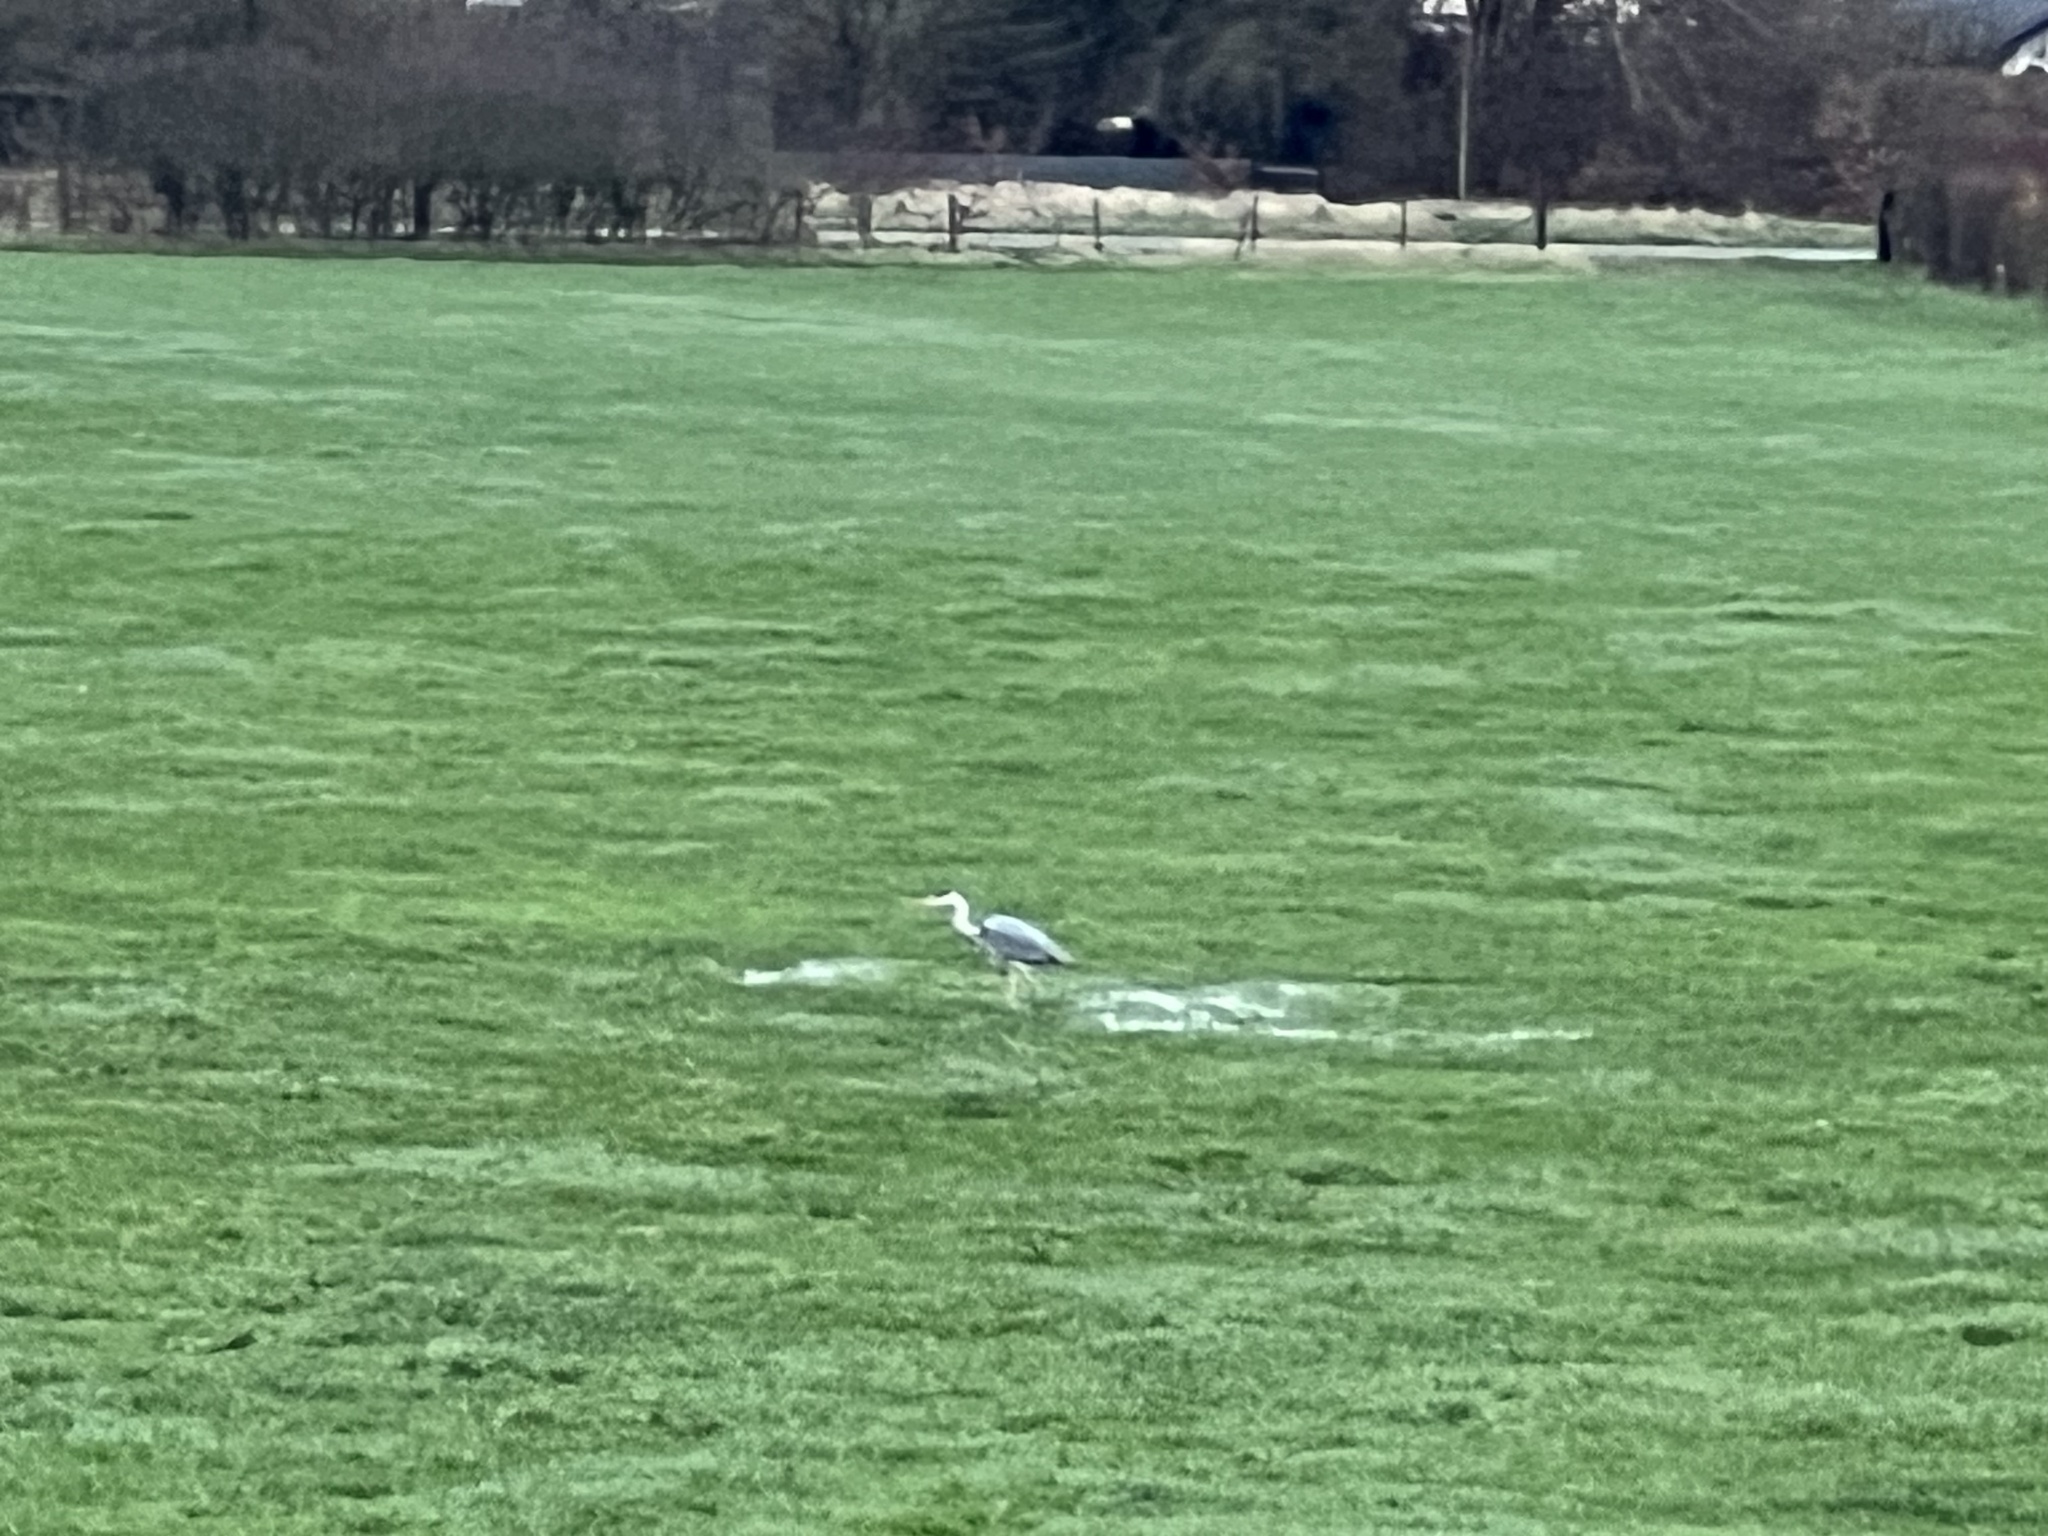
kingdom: Animalia
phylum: Chordata
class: Aves
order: Pelecaniformes
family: Ardeidae
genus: Ardea
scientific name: Ardea cinerea
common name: Grey heron
